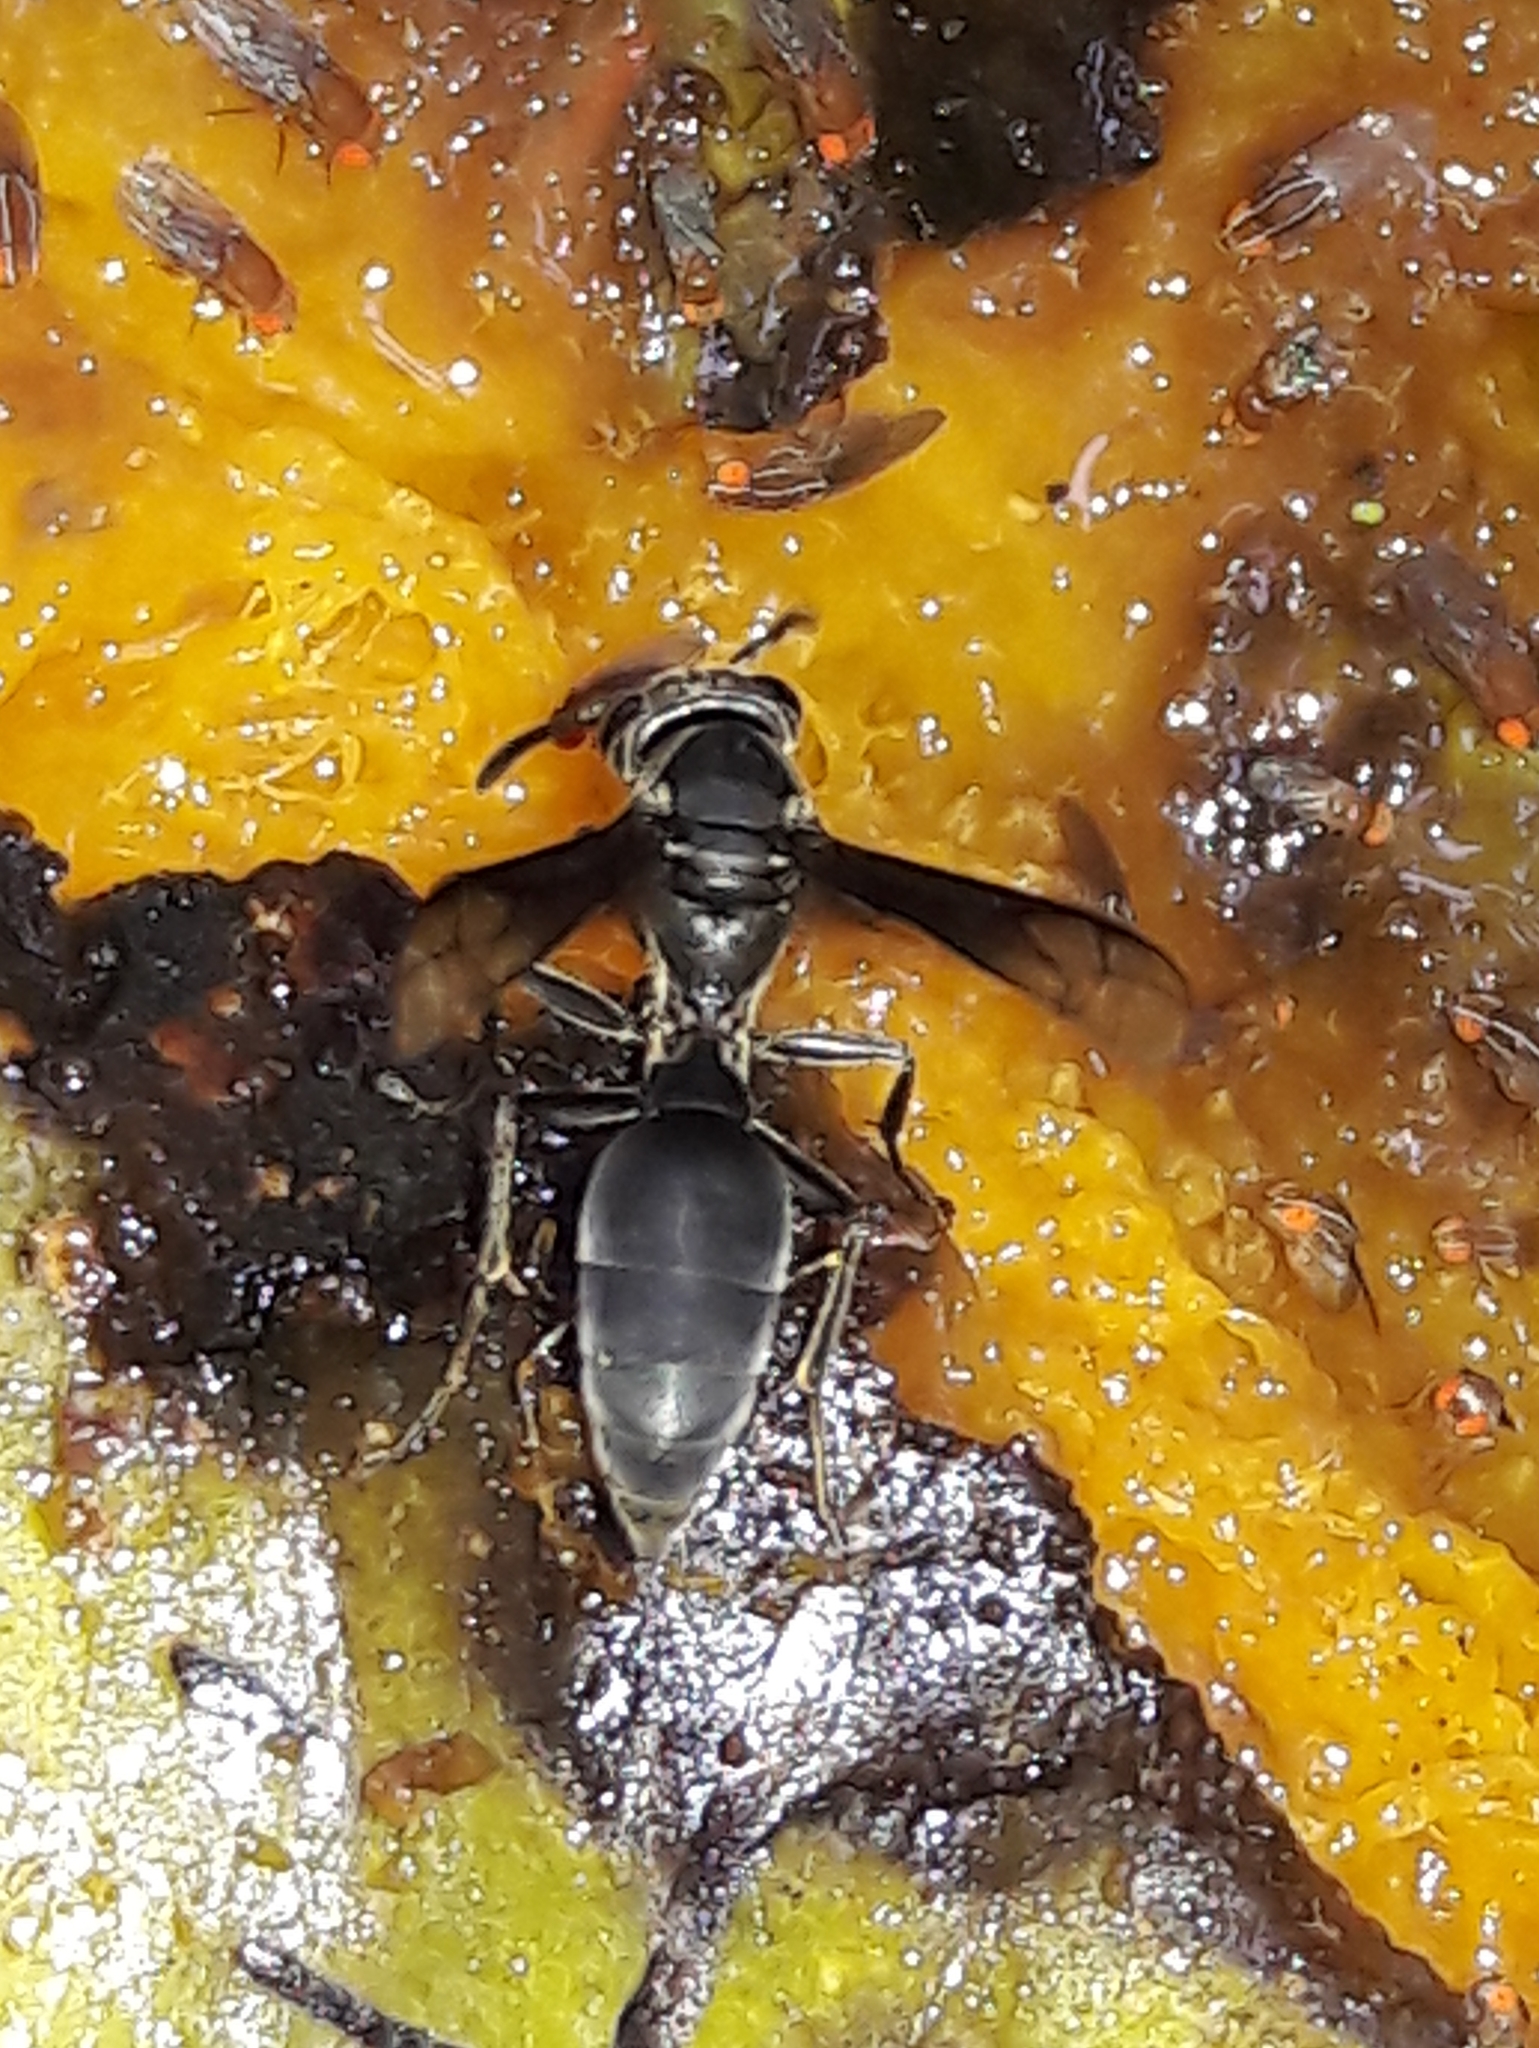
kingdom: Animalia
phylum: Arthropoda
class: Insecta
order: Hymenoptera
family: Eumenidae
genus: Polybia
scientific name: Polybia ignobilis
